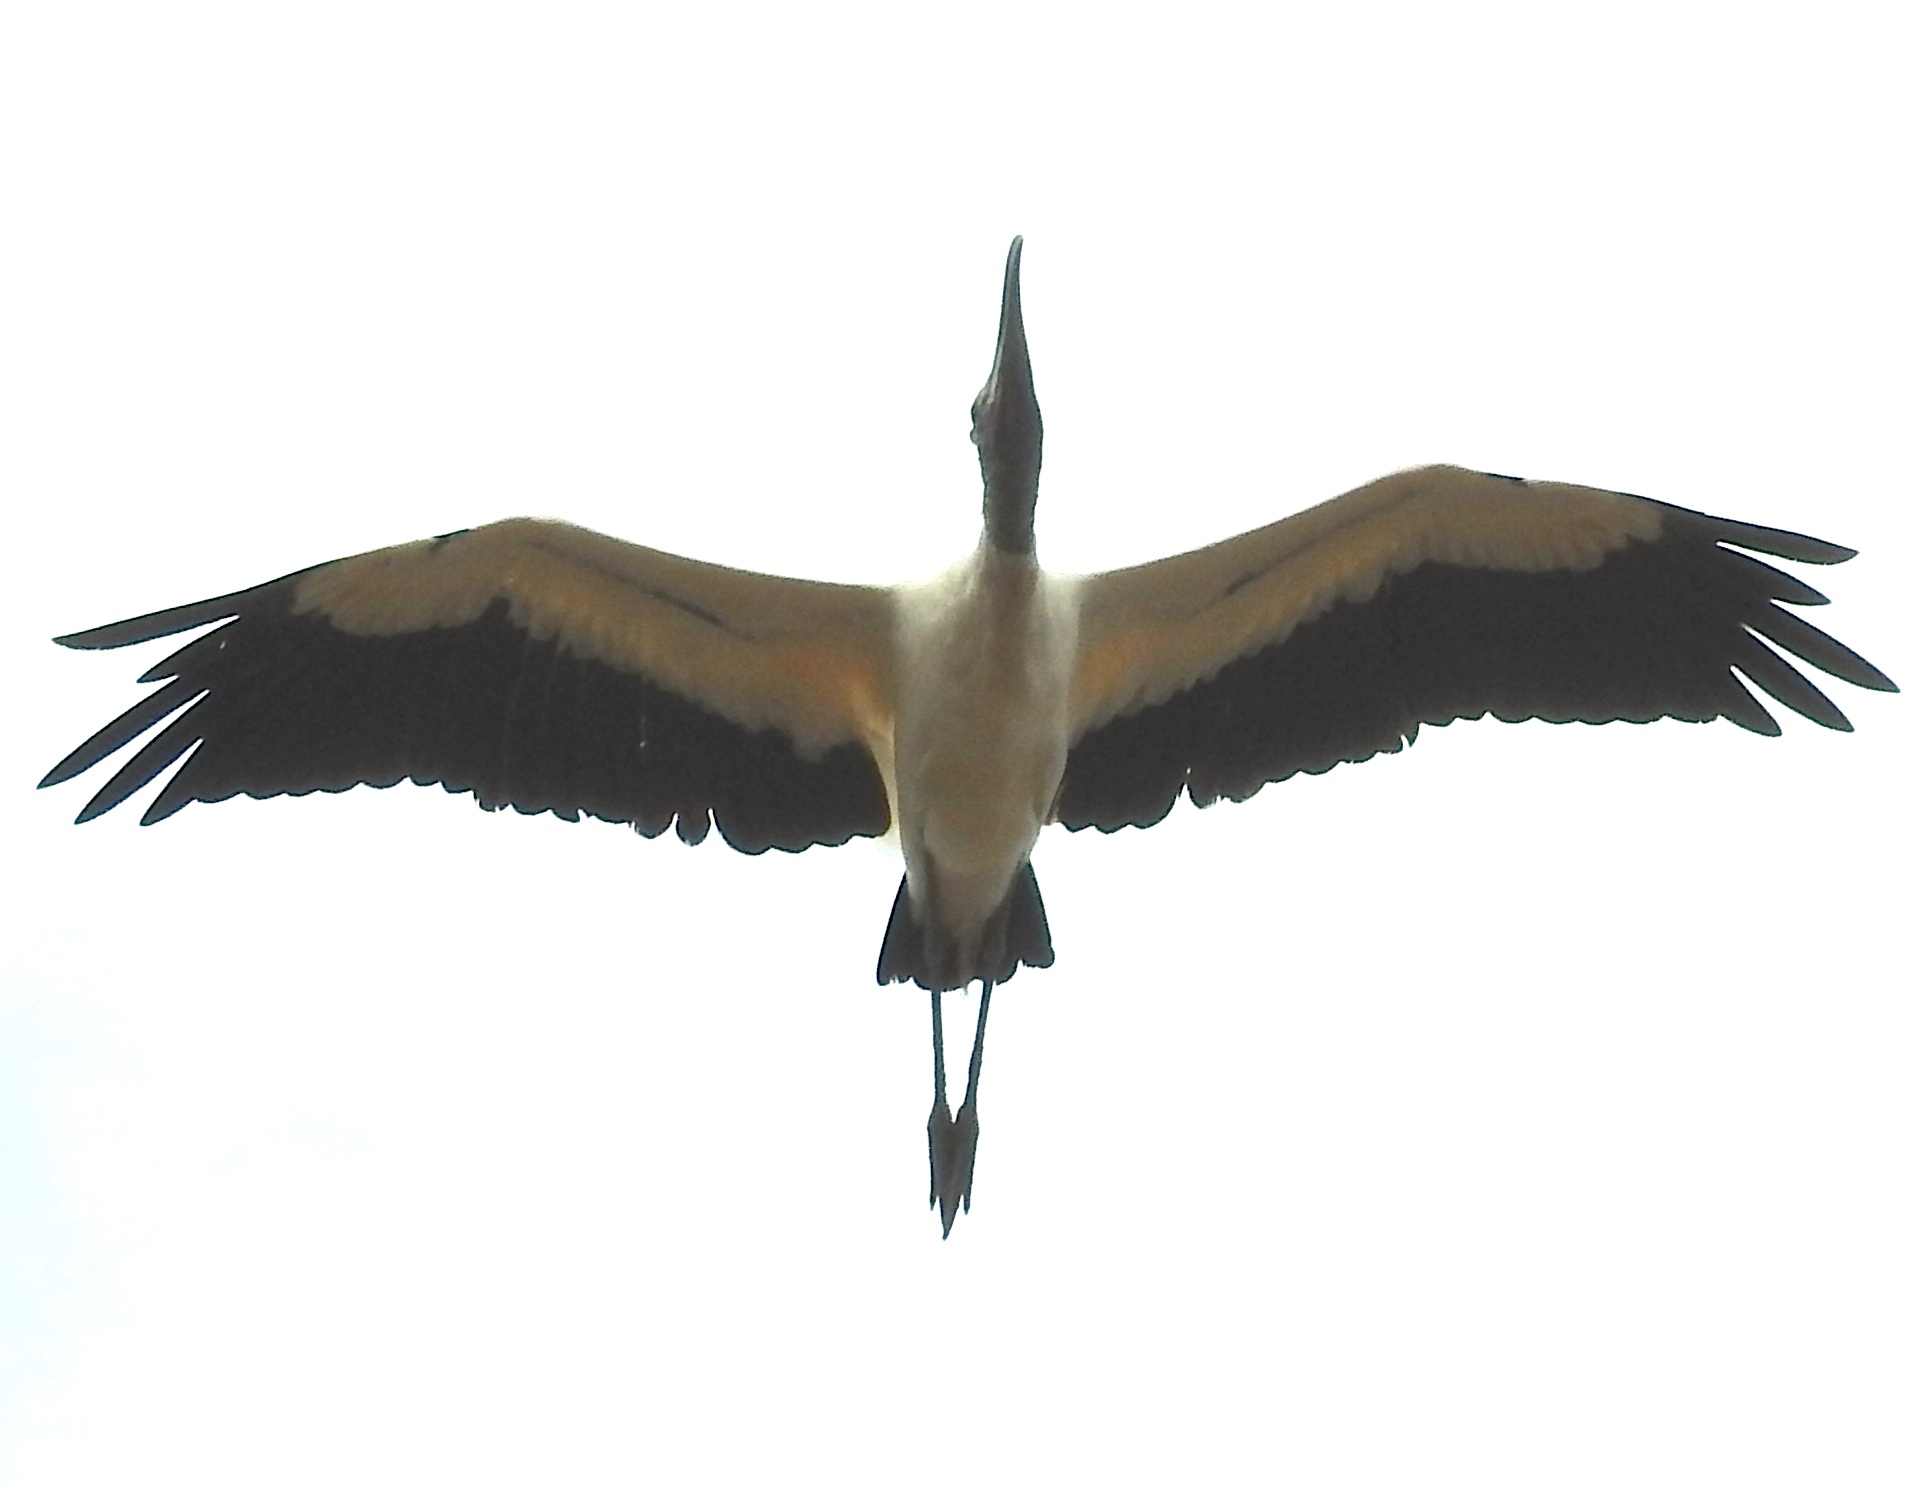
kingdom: Animalia
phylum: Chordata
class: Aves
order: Ciconiiformes
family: Ciconiidae
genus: Mycteria
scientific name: Mycteria americana
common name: Wood stork
